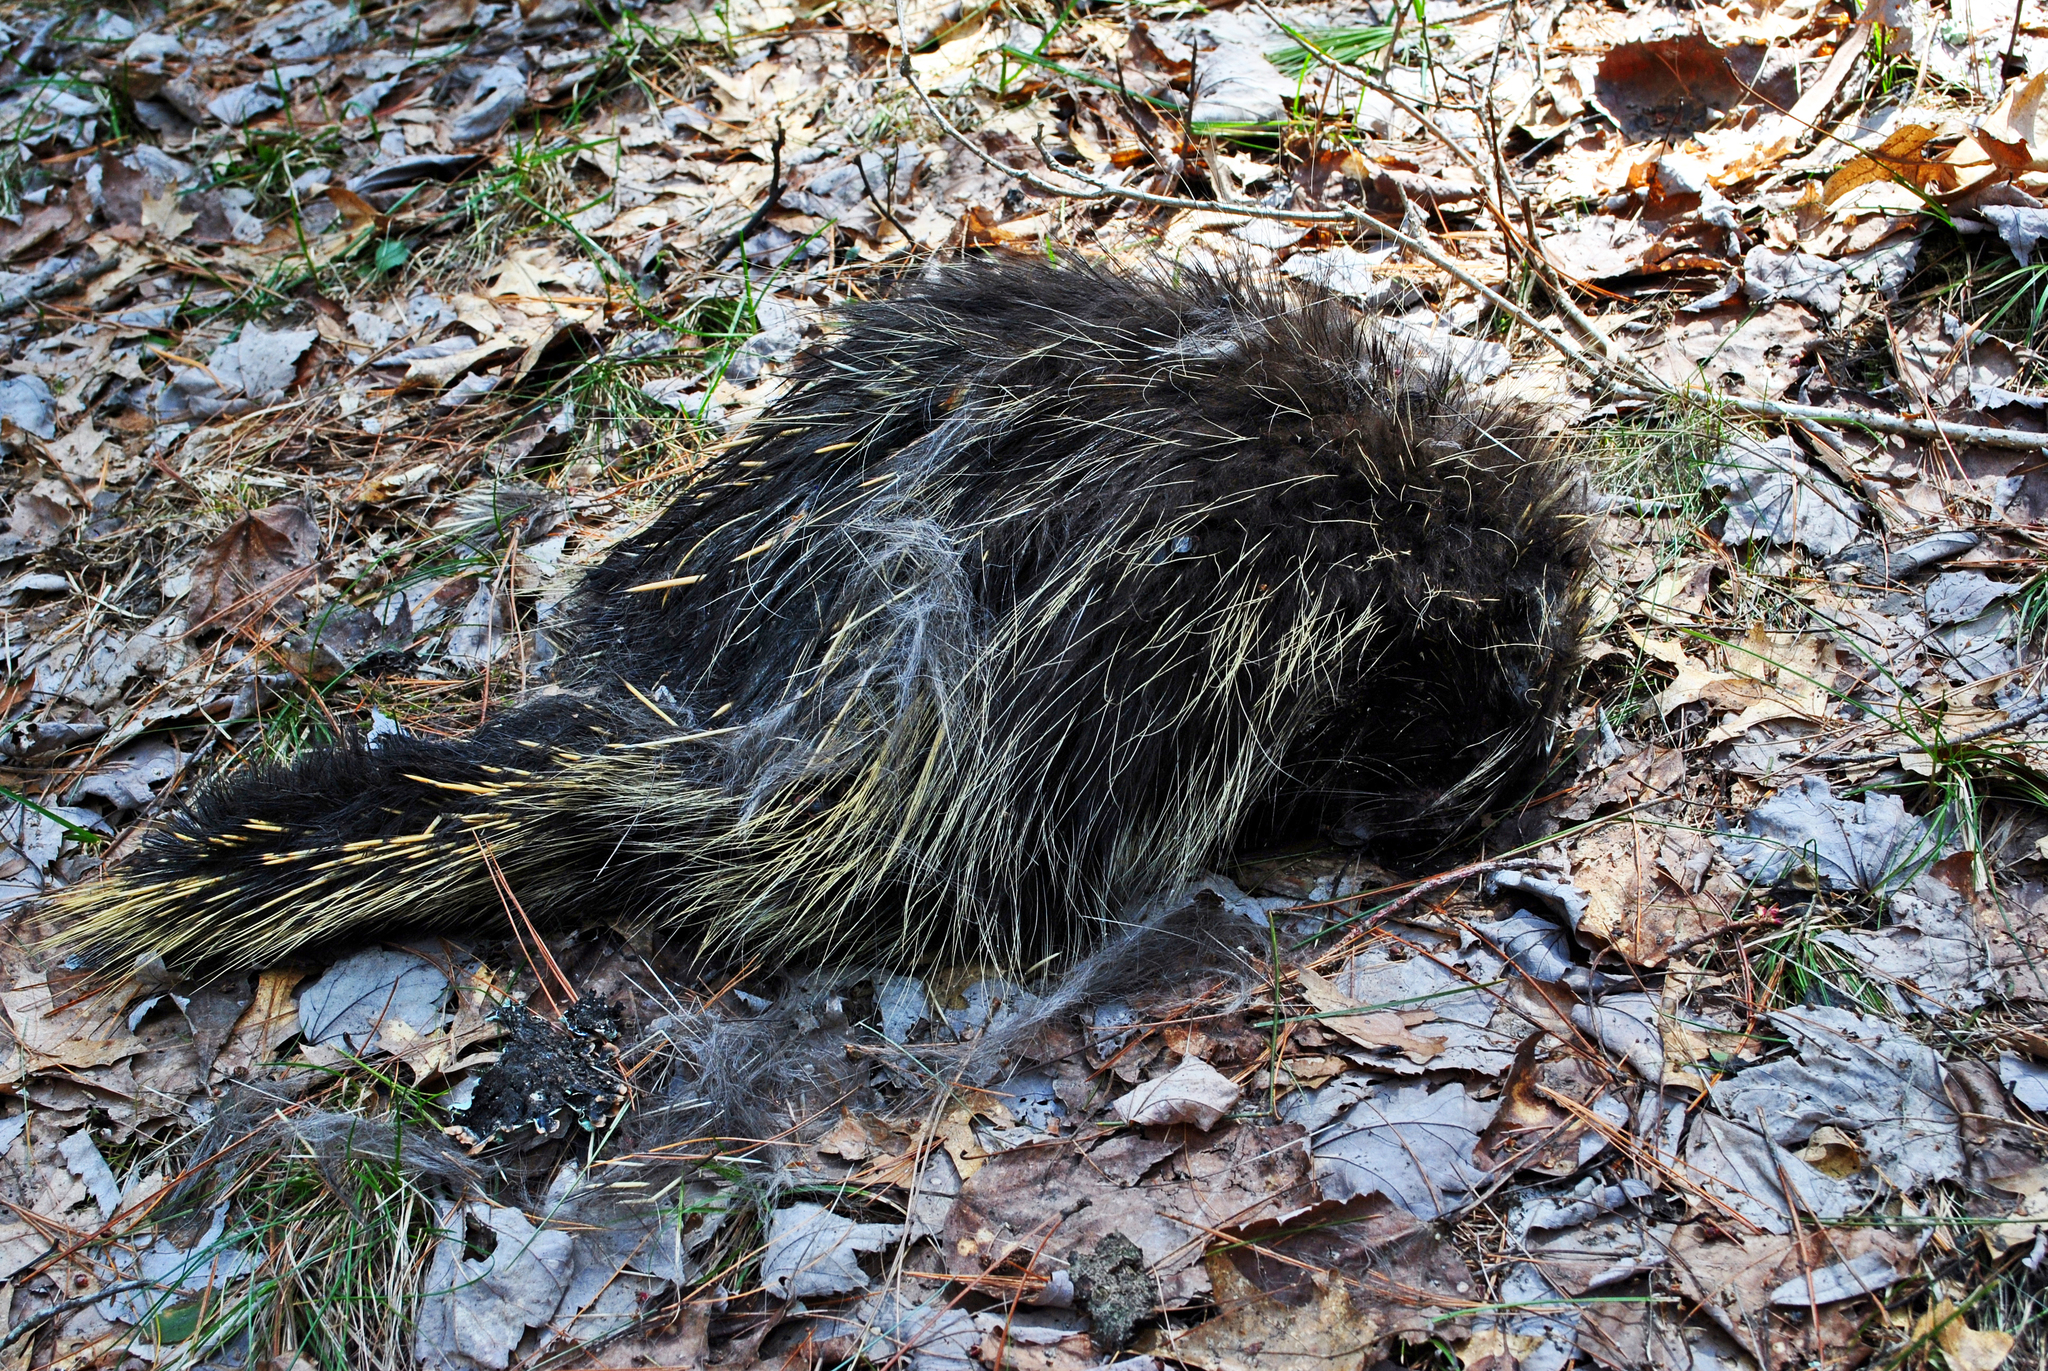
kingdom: Animalia
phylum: Chordata
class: Mammalia
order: Rodentia
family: Erethizontidae
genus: Erethizon
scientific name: Erethizon dorsatus
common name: North american porcupine
